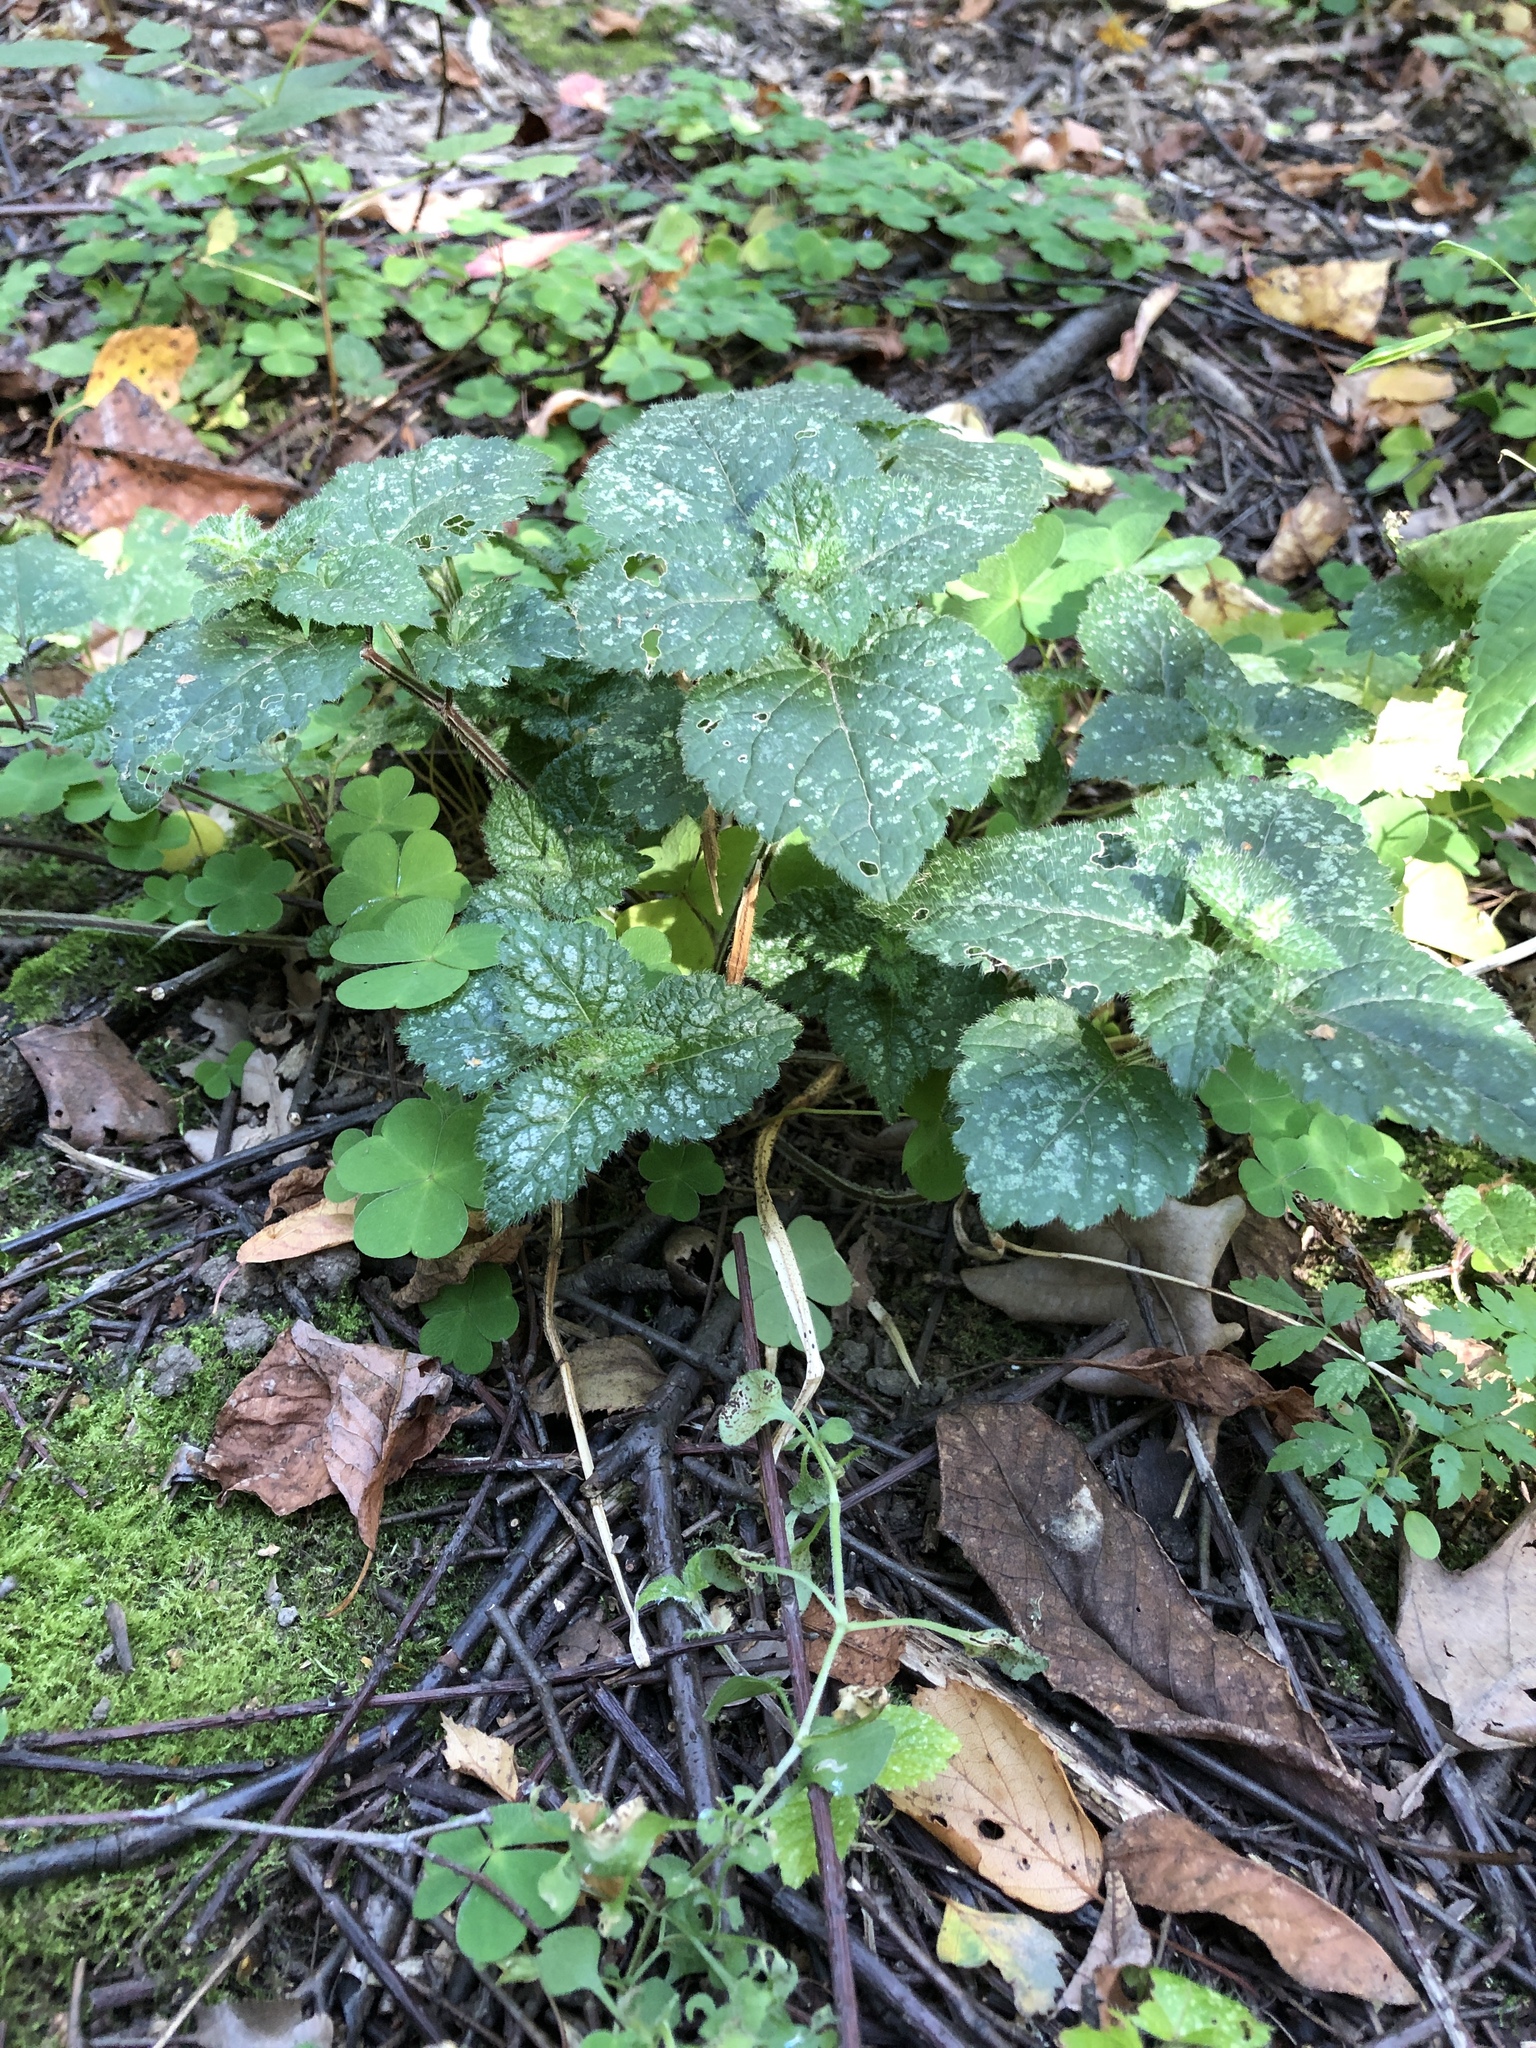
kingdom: Plantae
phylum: Tracheophyta
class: Magnoliopsida
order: Lamiales
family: Lamiaceae
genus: Lamium
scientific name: Lamium galeobdolon
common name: Yellow archangel
